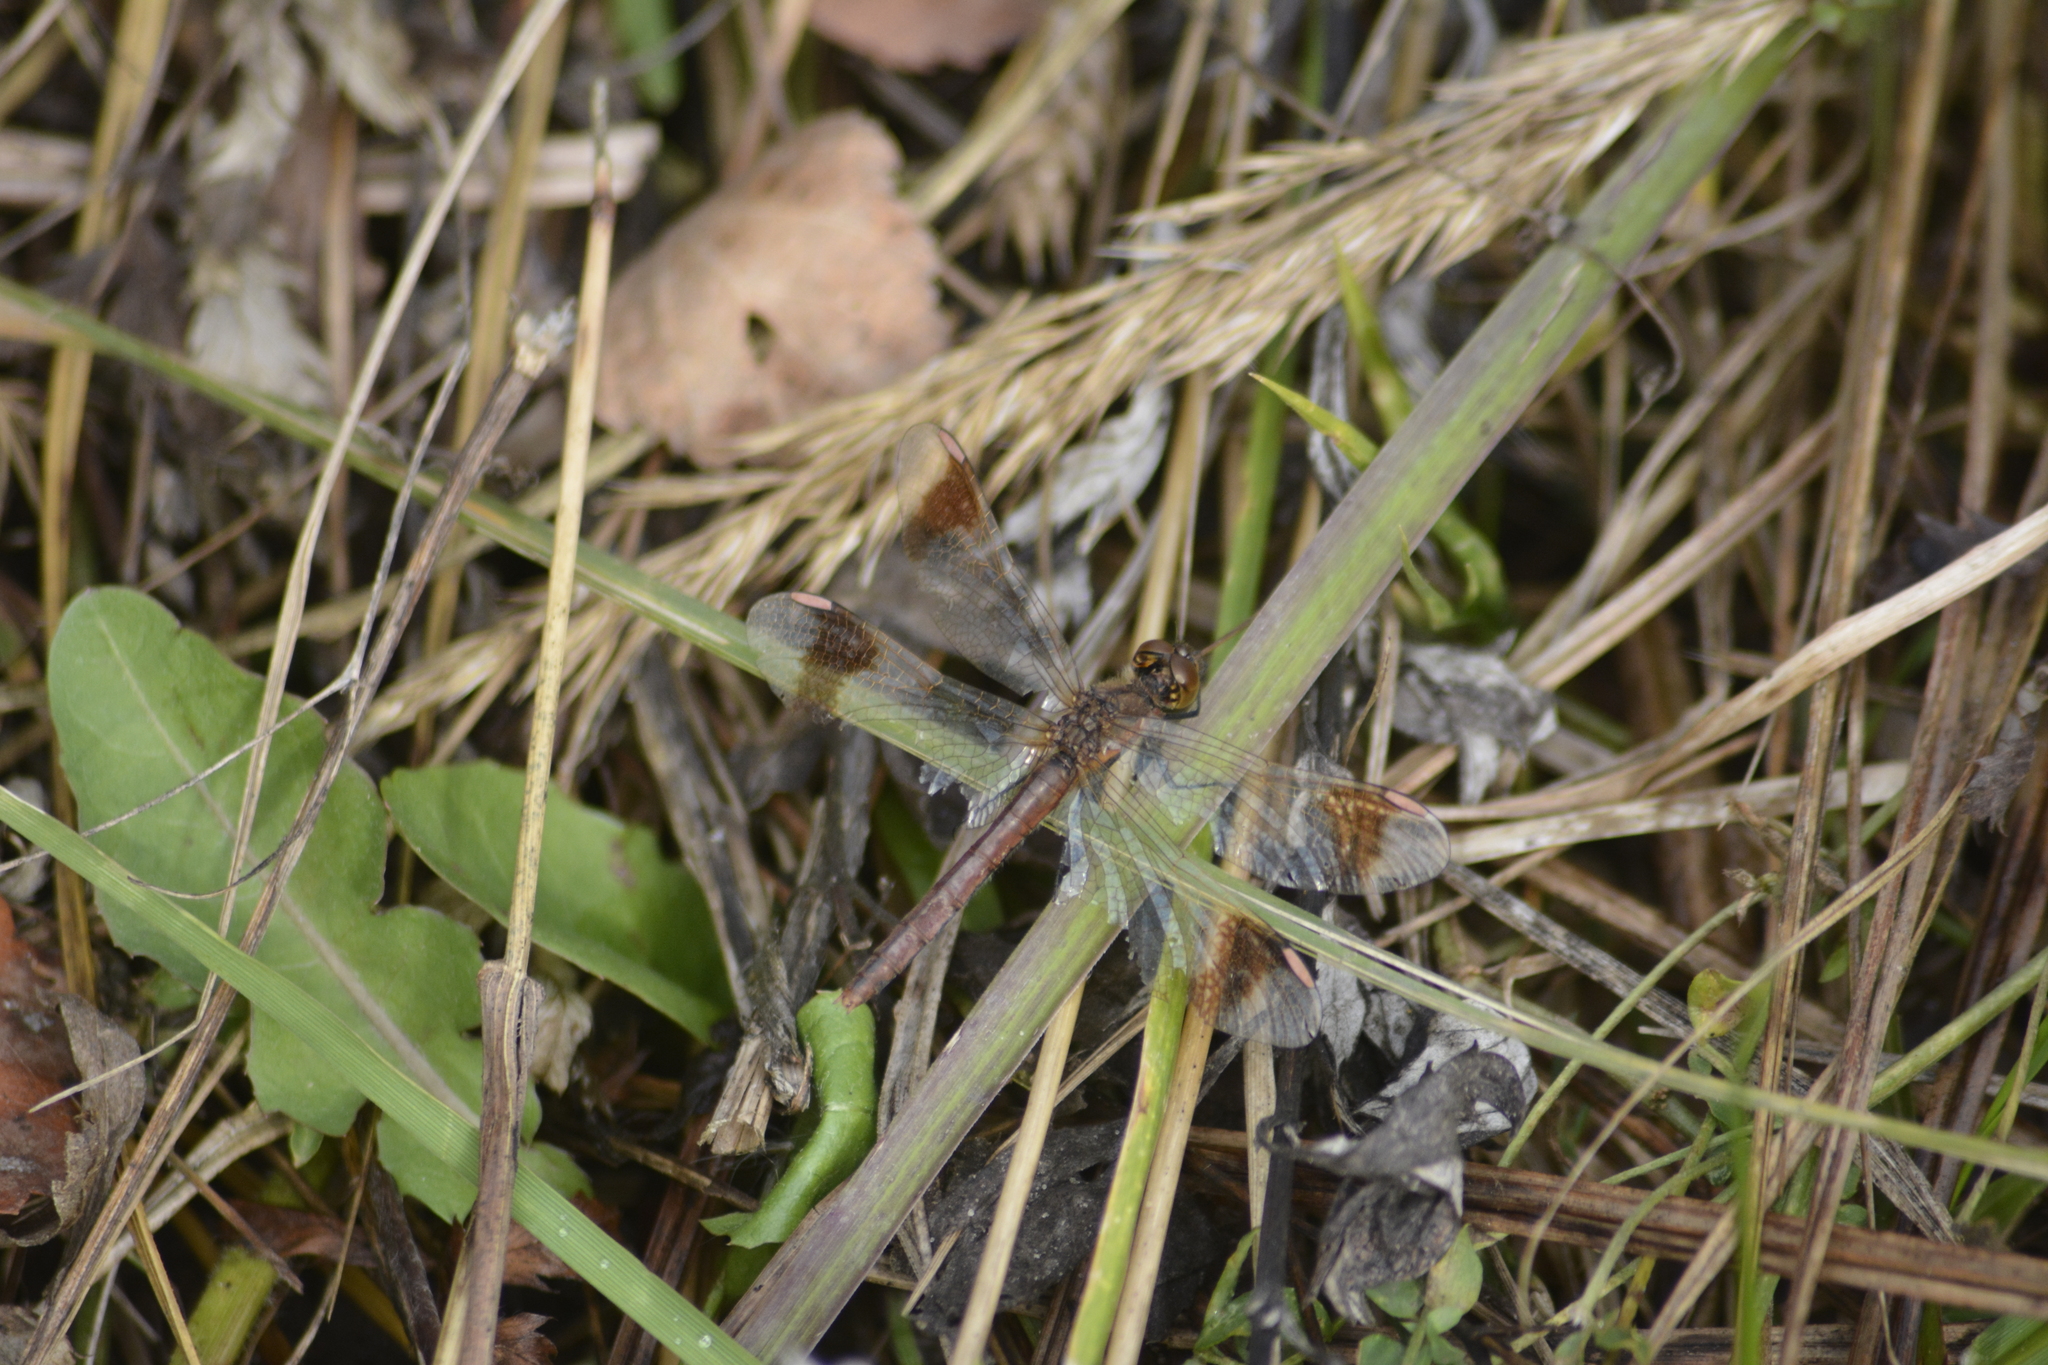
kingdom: Animalia
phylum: Arthropoda
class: Insecta
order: Odonata
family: Libellulidae
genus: Sympetrum
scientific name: Sympetrum pedemontanum
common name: Banded darter
